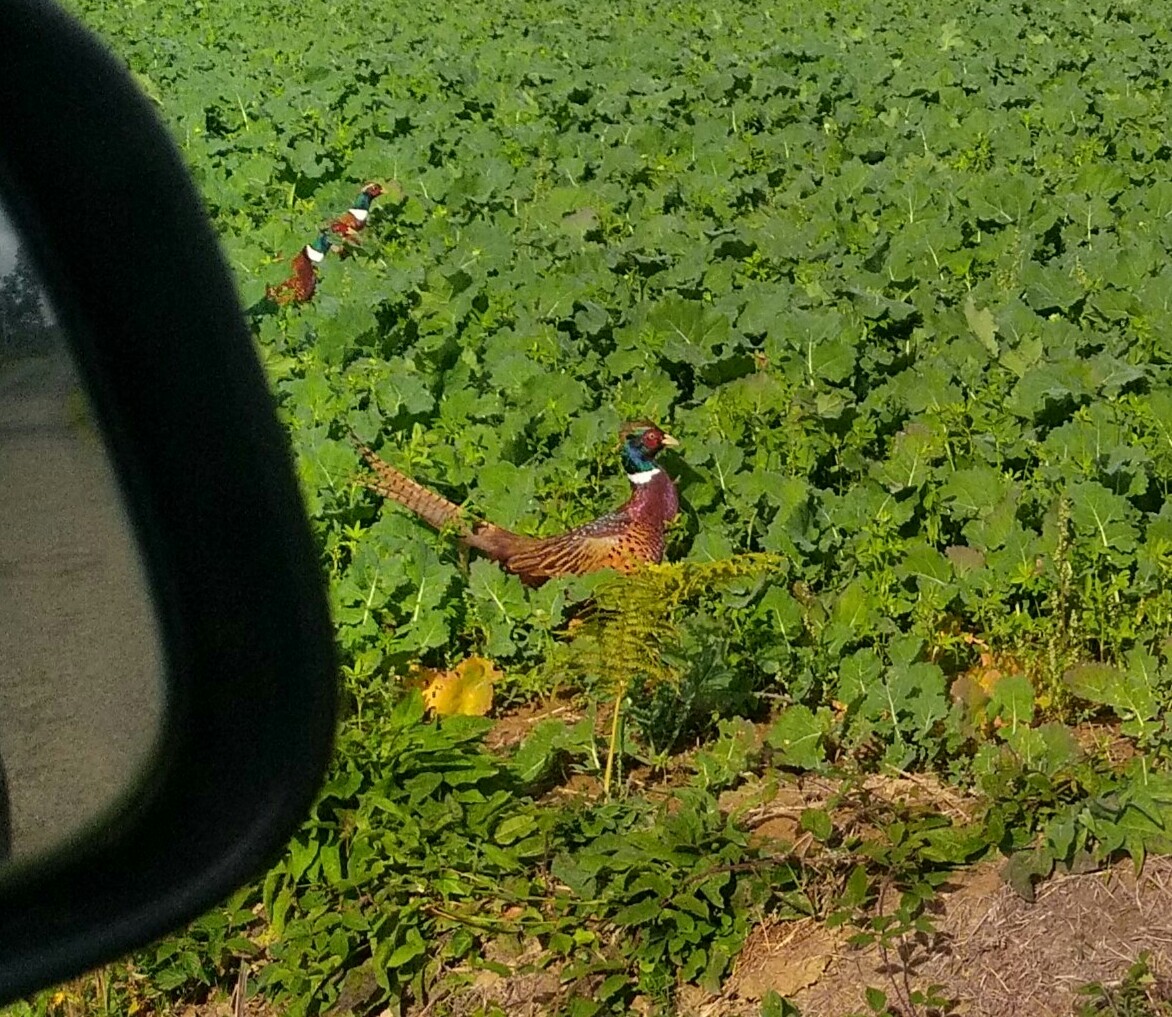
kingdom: Animalia
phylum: Chordata
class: Aves
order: Galliformes
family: Phasianidae
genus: Phasianus
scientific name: Phasianus colchicus
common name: Common pheasant
